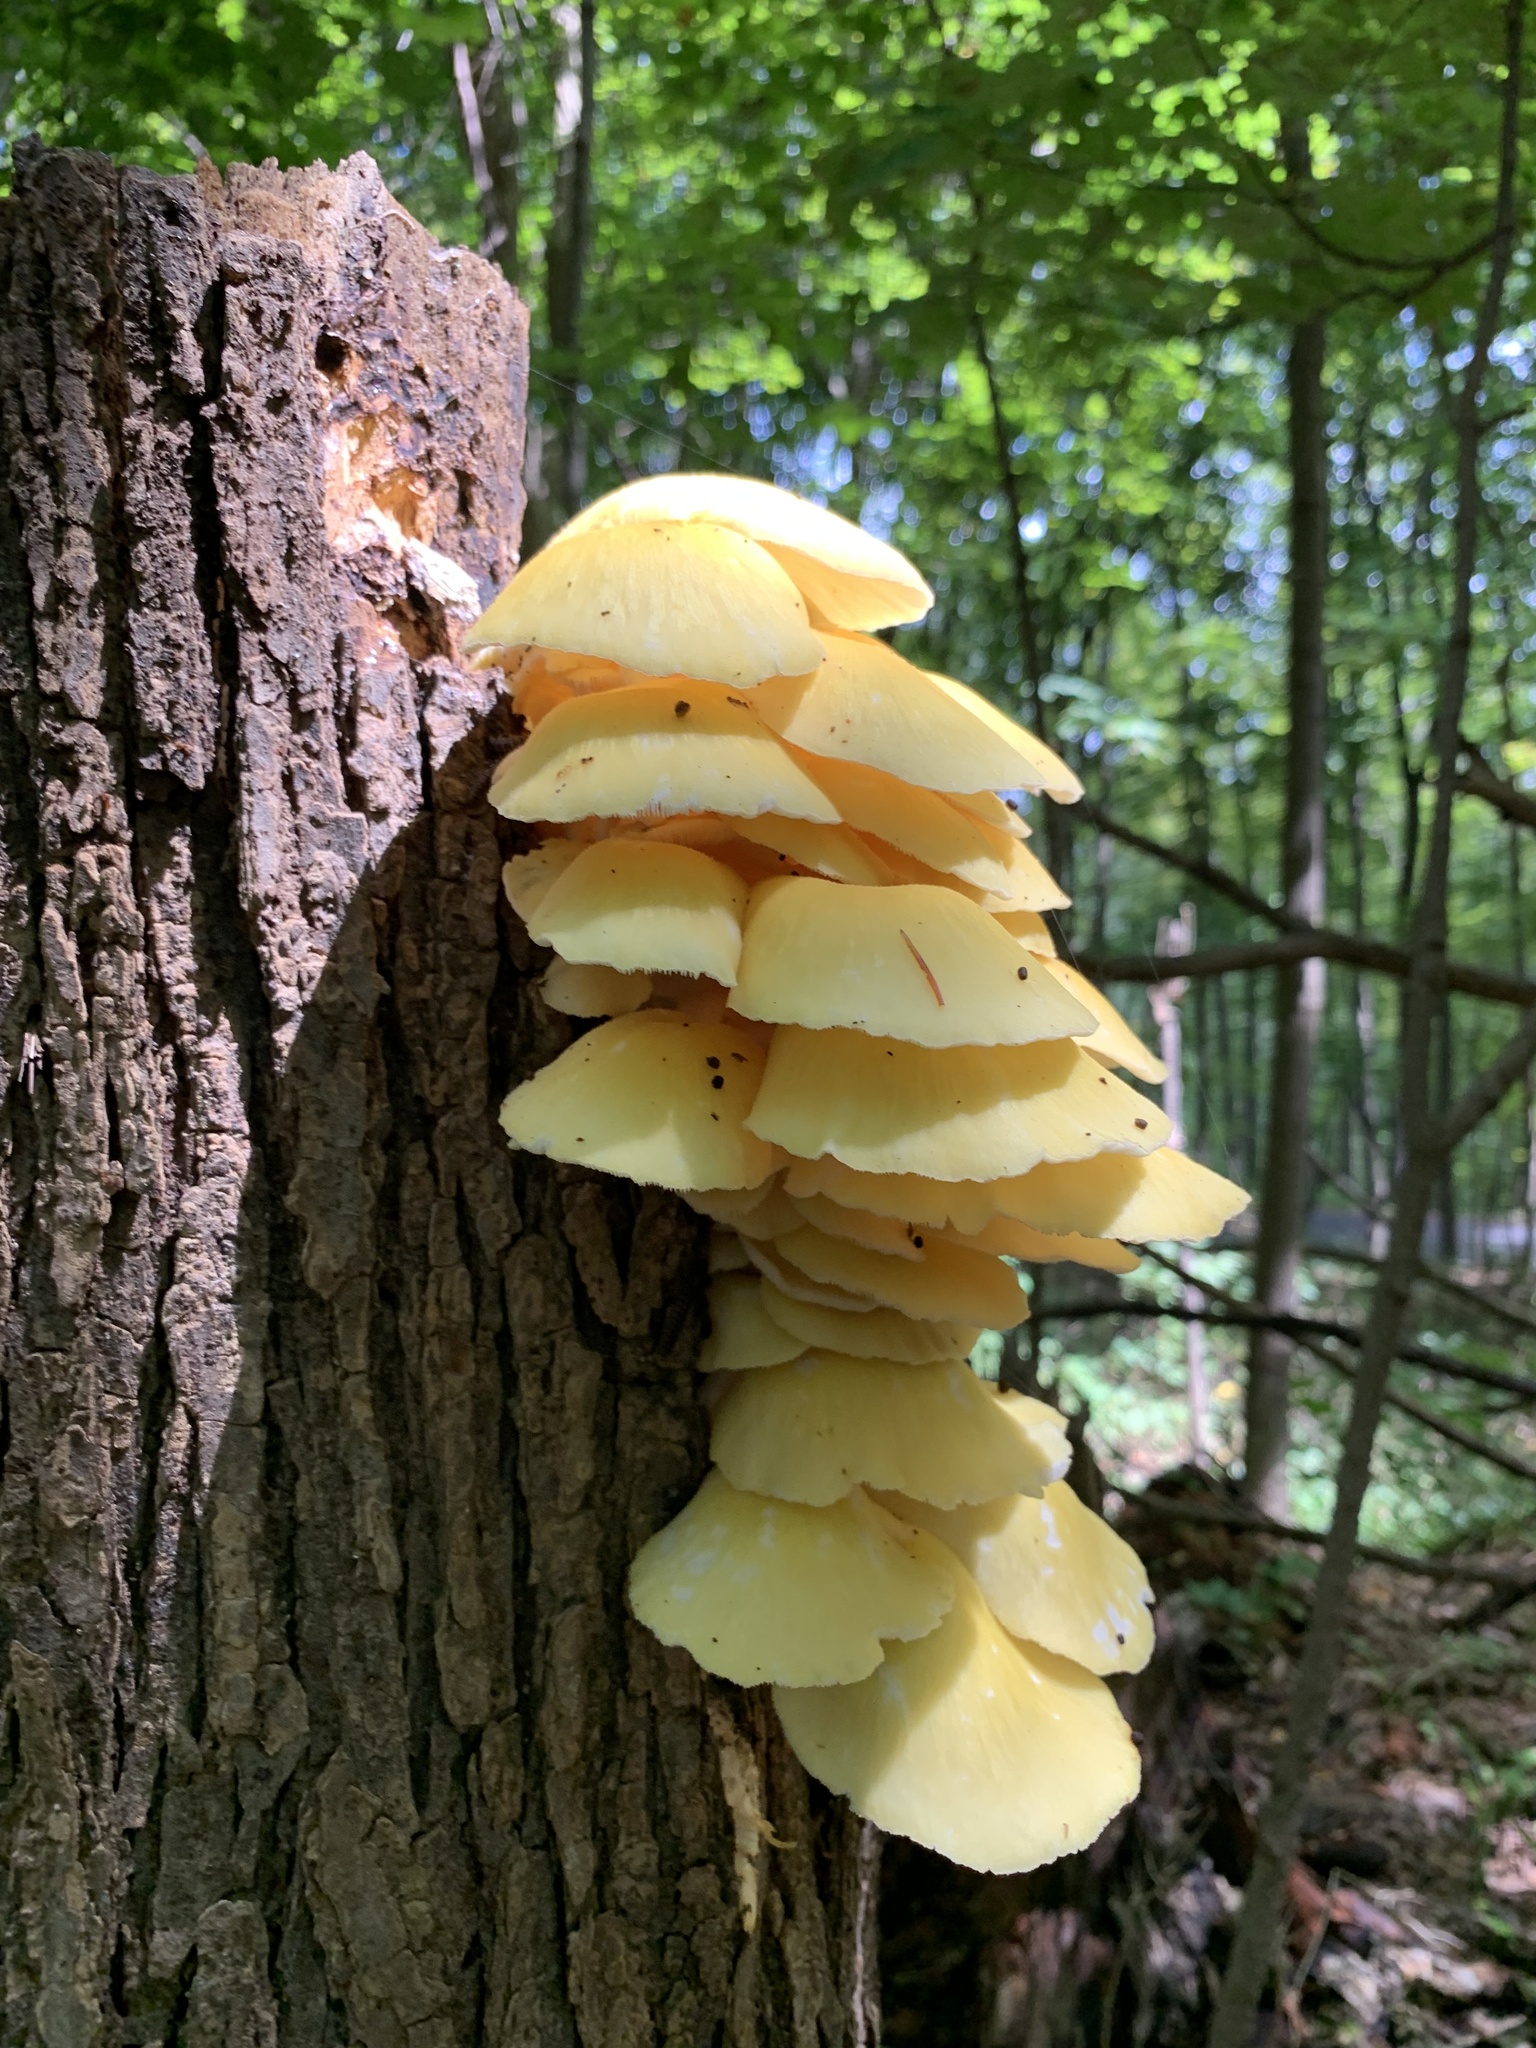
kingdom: Fungi
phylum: Basidiomycota
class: Agaricomycetes
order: Agaricales
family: Pleurotaceae
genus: Pleurotus
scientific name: Pleurotus citrinopileatus
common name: Golden oyster mushroom
